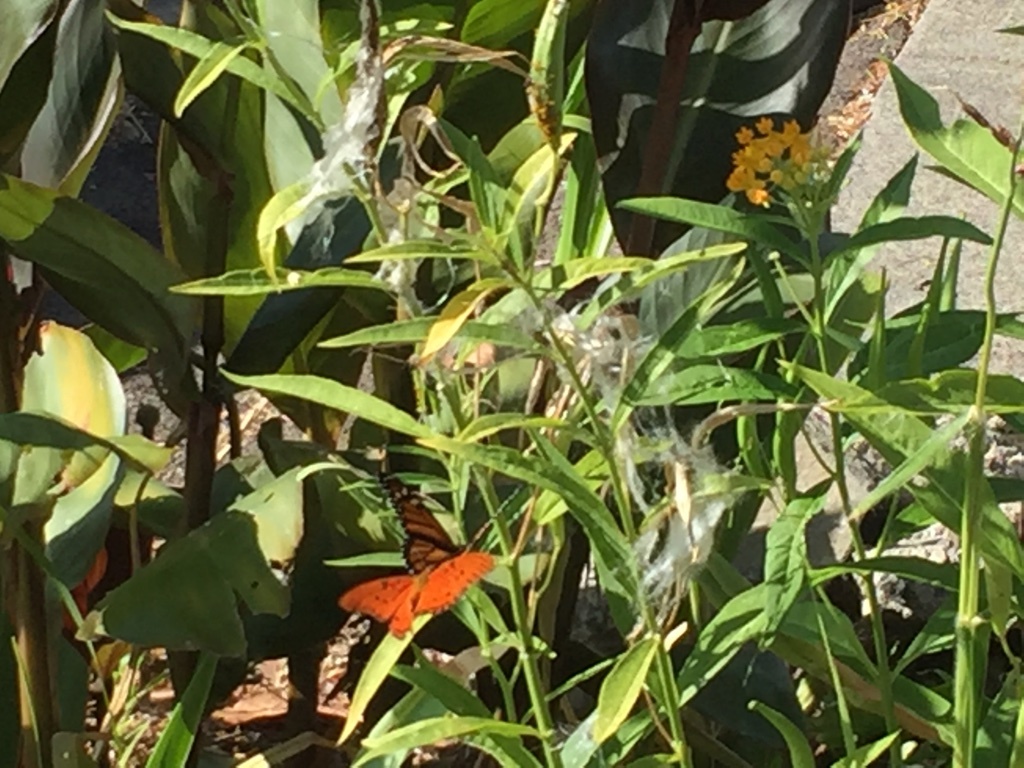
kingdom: Animalia
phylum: Arthropoda
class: Insecta
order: Lepidoptera
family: Nymphalidae
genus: Danaus
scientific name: Danaus plexippus
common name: Monarch
